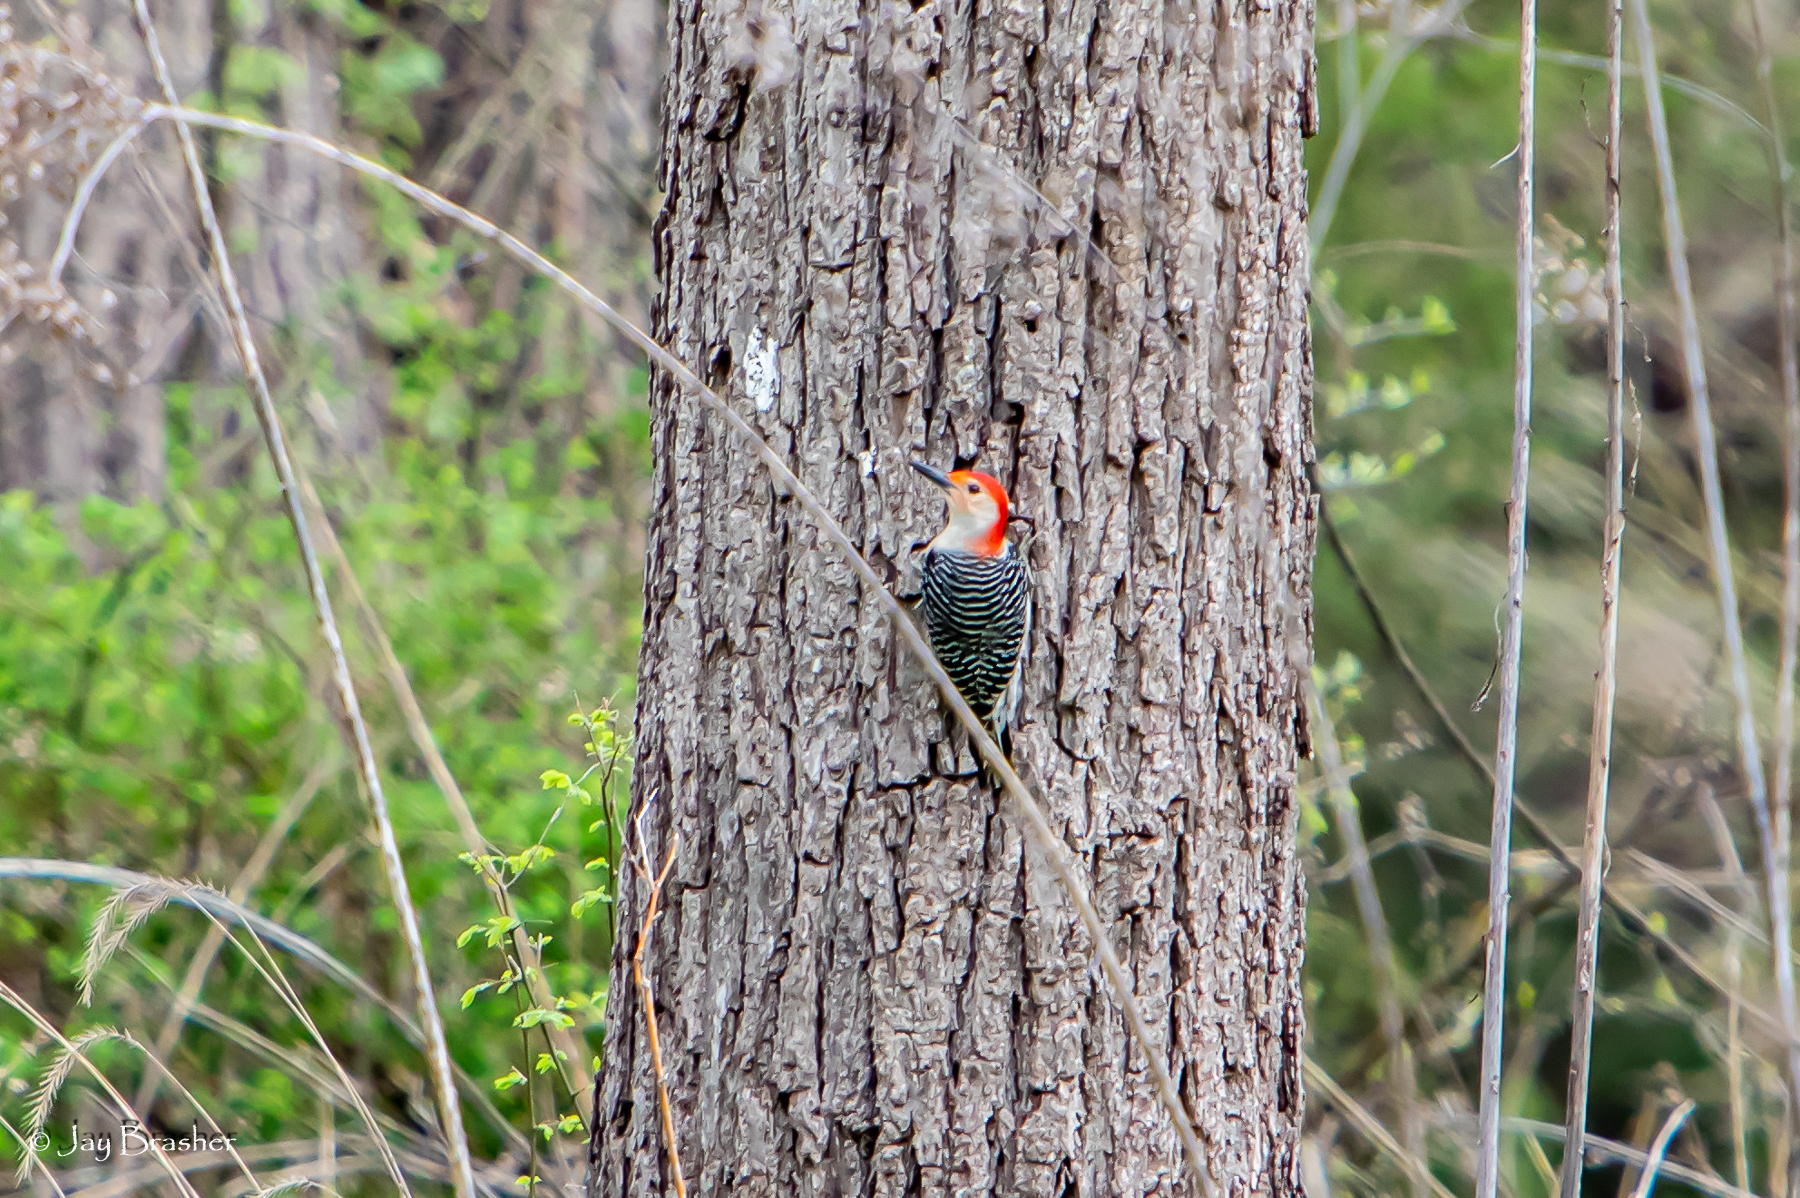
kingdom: Animalia
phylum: Chordata
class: Aves
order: Piciformes
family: Picidae
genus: Melanerpes
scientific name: Melanerpes carolinus
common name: Red-bellied woodpecker
